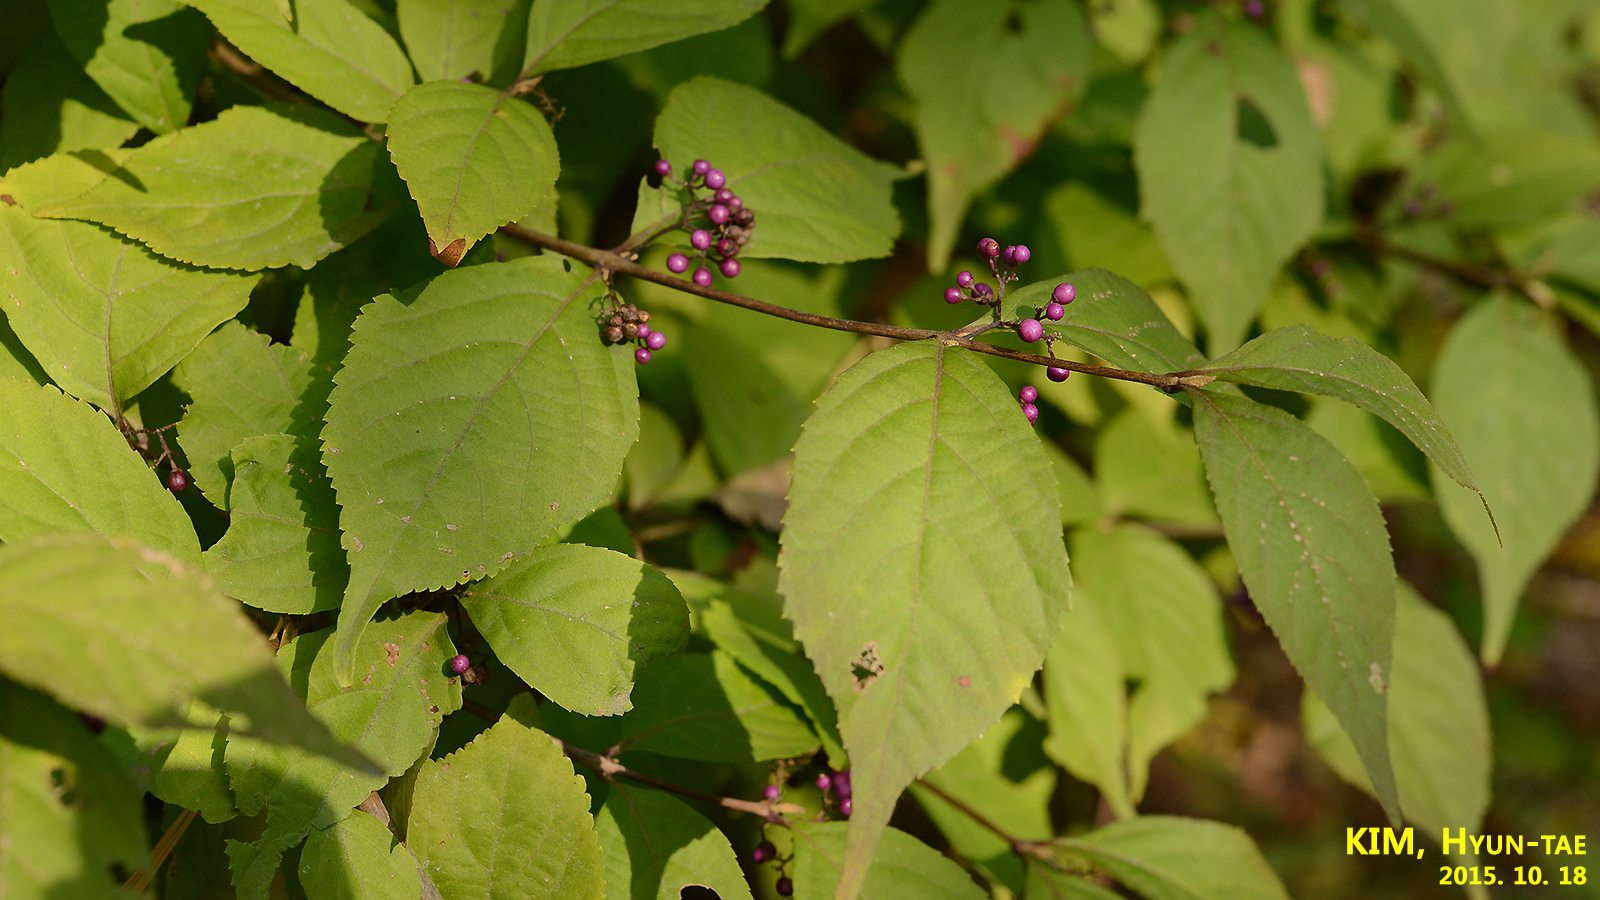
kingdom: Plantae
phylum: Tracheophyta
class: Magnoliopsida
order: Lamiales
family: Lamiaceae
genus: Callicarpa
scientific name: Callicarpa dichotoma
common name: Purple beauty-berry
